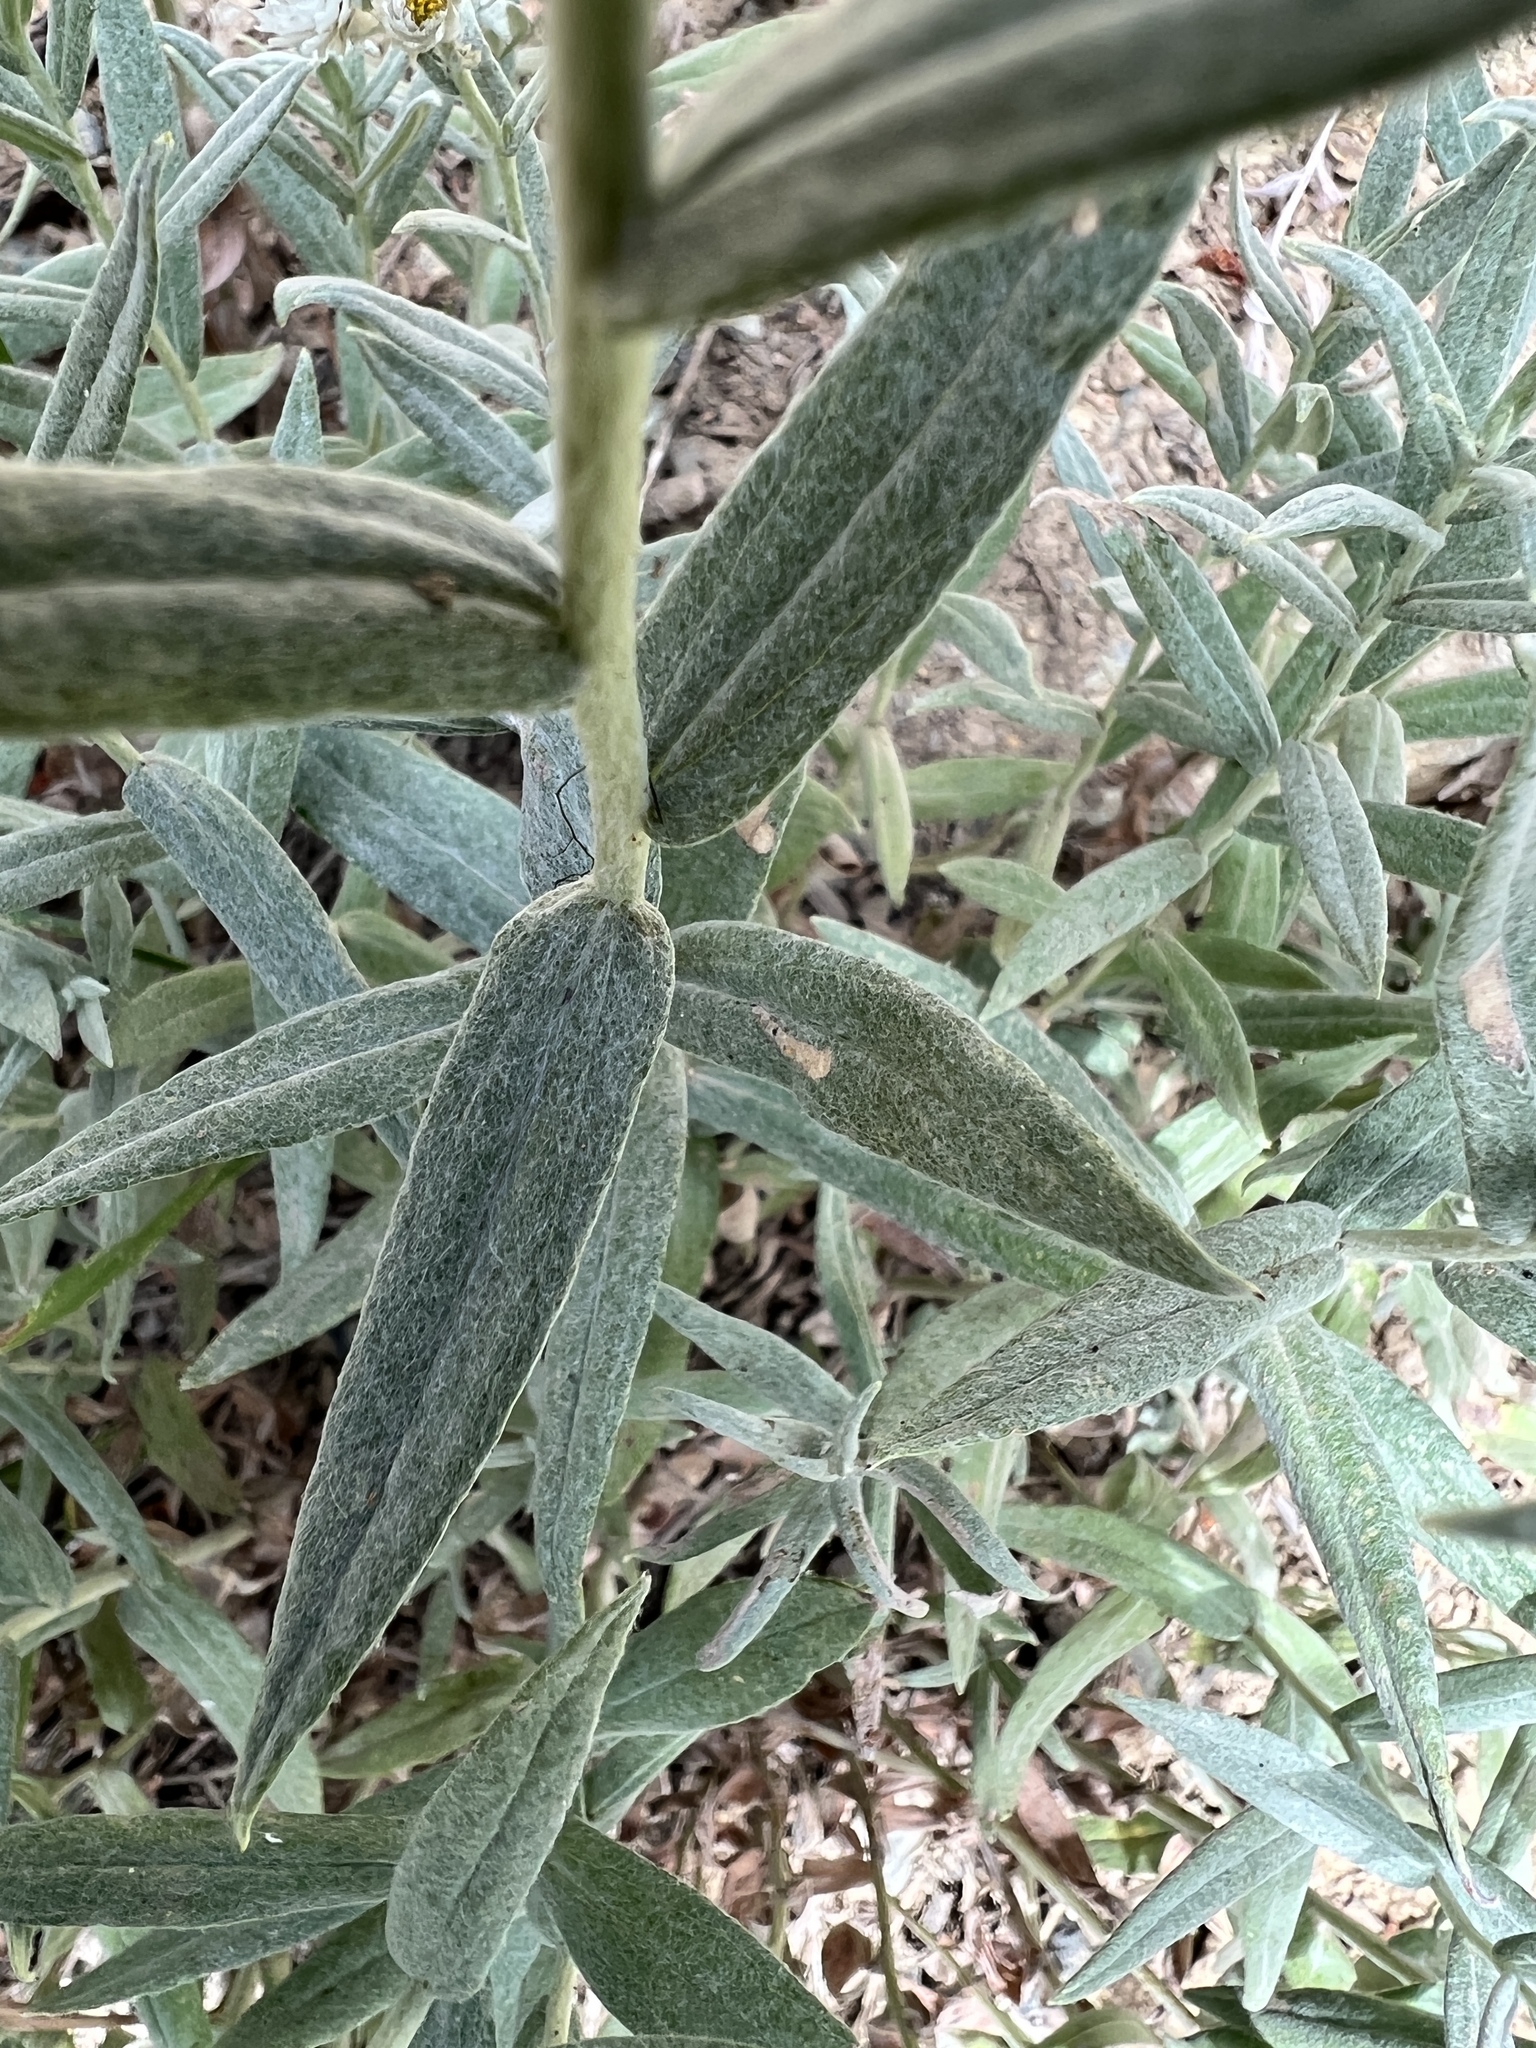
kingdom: Plantae
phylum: Tracheophyta
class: Magnoliopsida
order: Asterales
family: Asteraceae
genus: Anaphalis
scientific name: Anaphalis margaritacea
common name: Pearly everlasting
